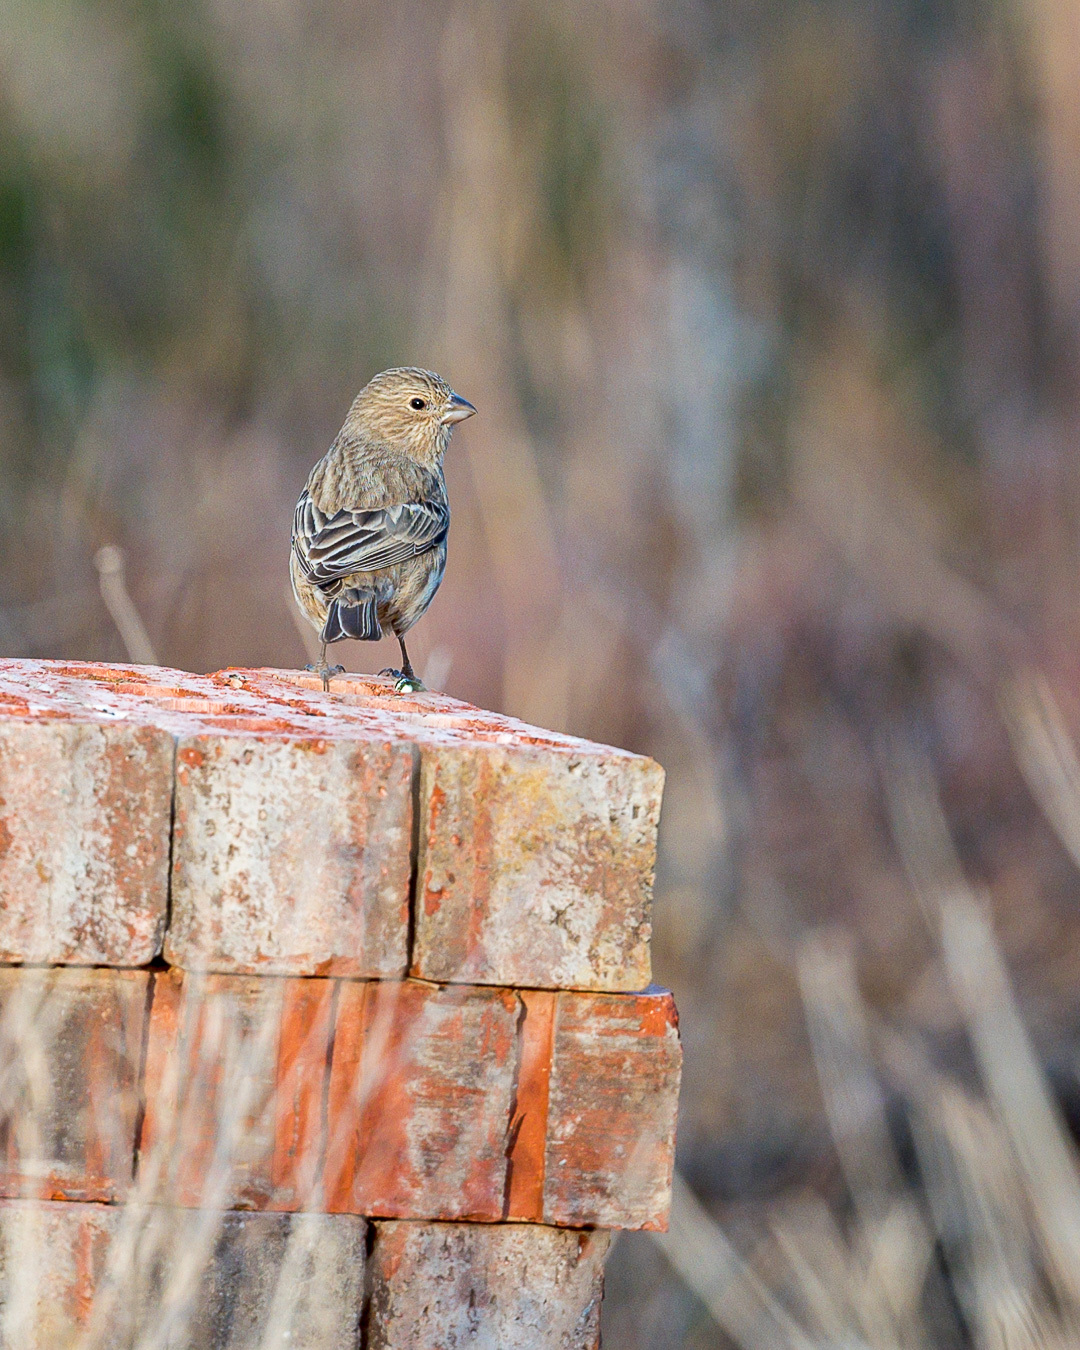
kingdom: Animalia
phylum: Chordata
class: Aves
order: Passeriformes
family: Fringillidae
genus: Haemorhous
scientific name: Haemorhous mexicanus
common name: House finch
